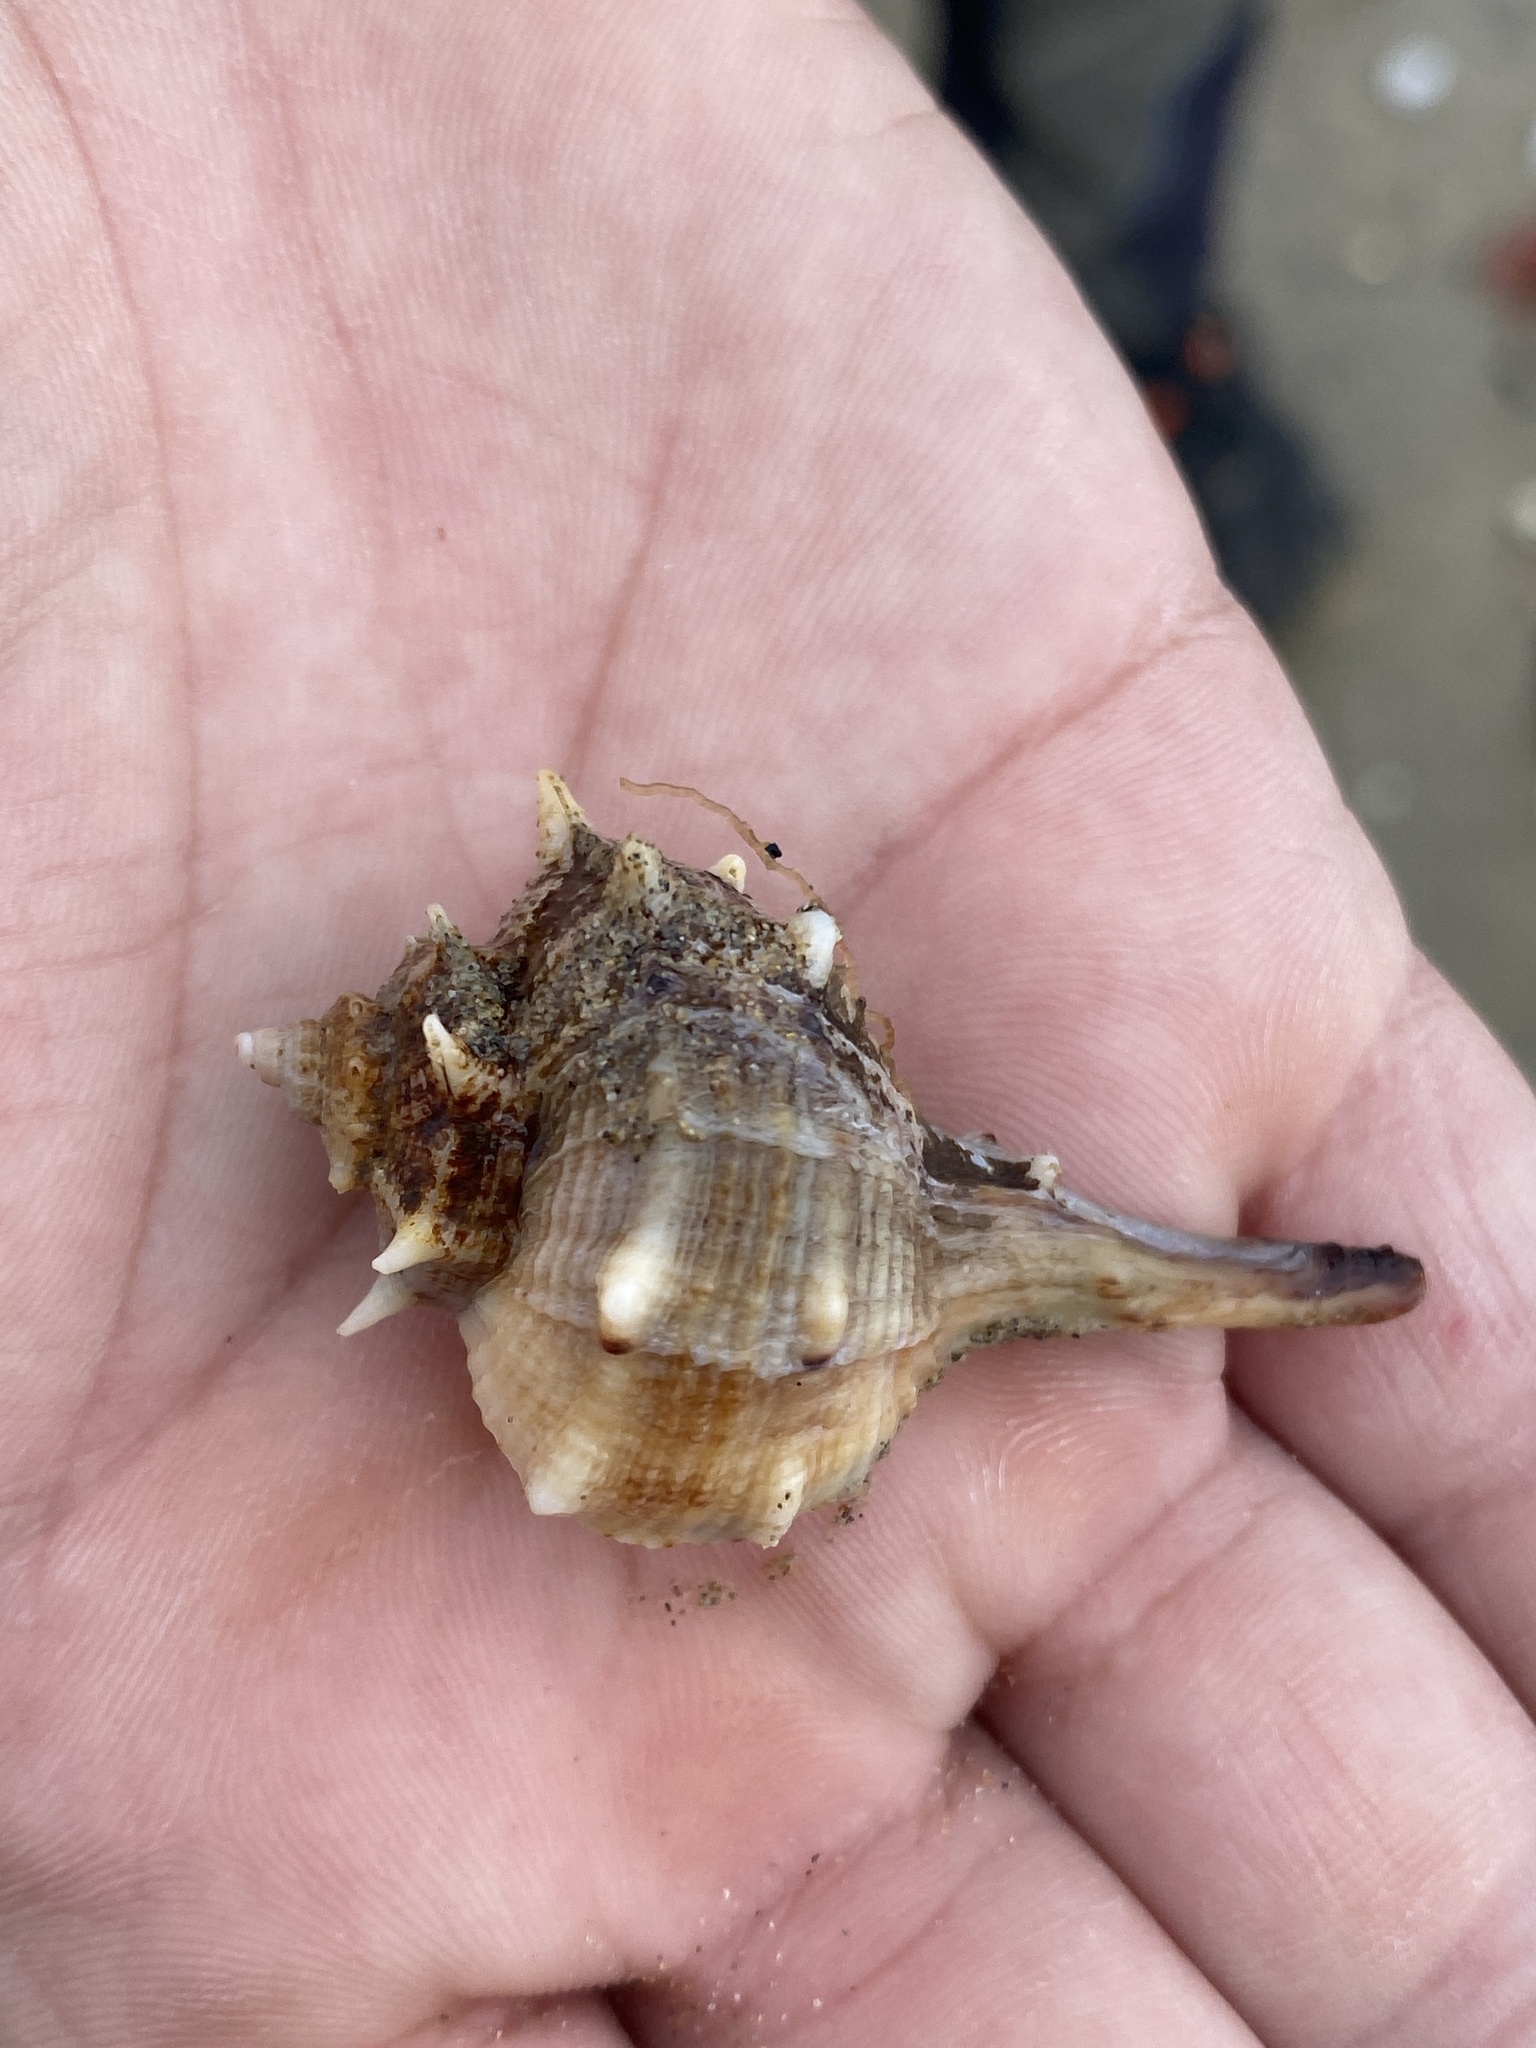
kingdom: Animalia
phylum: Mollusca
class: Gastropoda
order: Neogastropoda
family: Muricidae
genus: Bolinus
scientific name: Bolinus brandaris
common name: Dye murex
